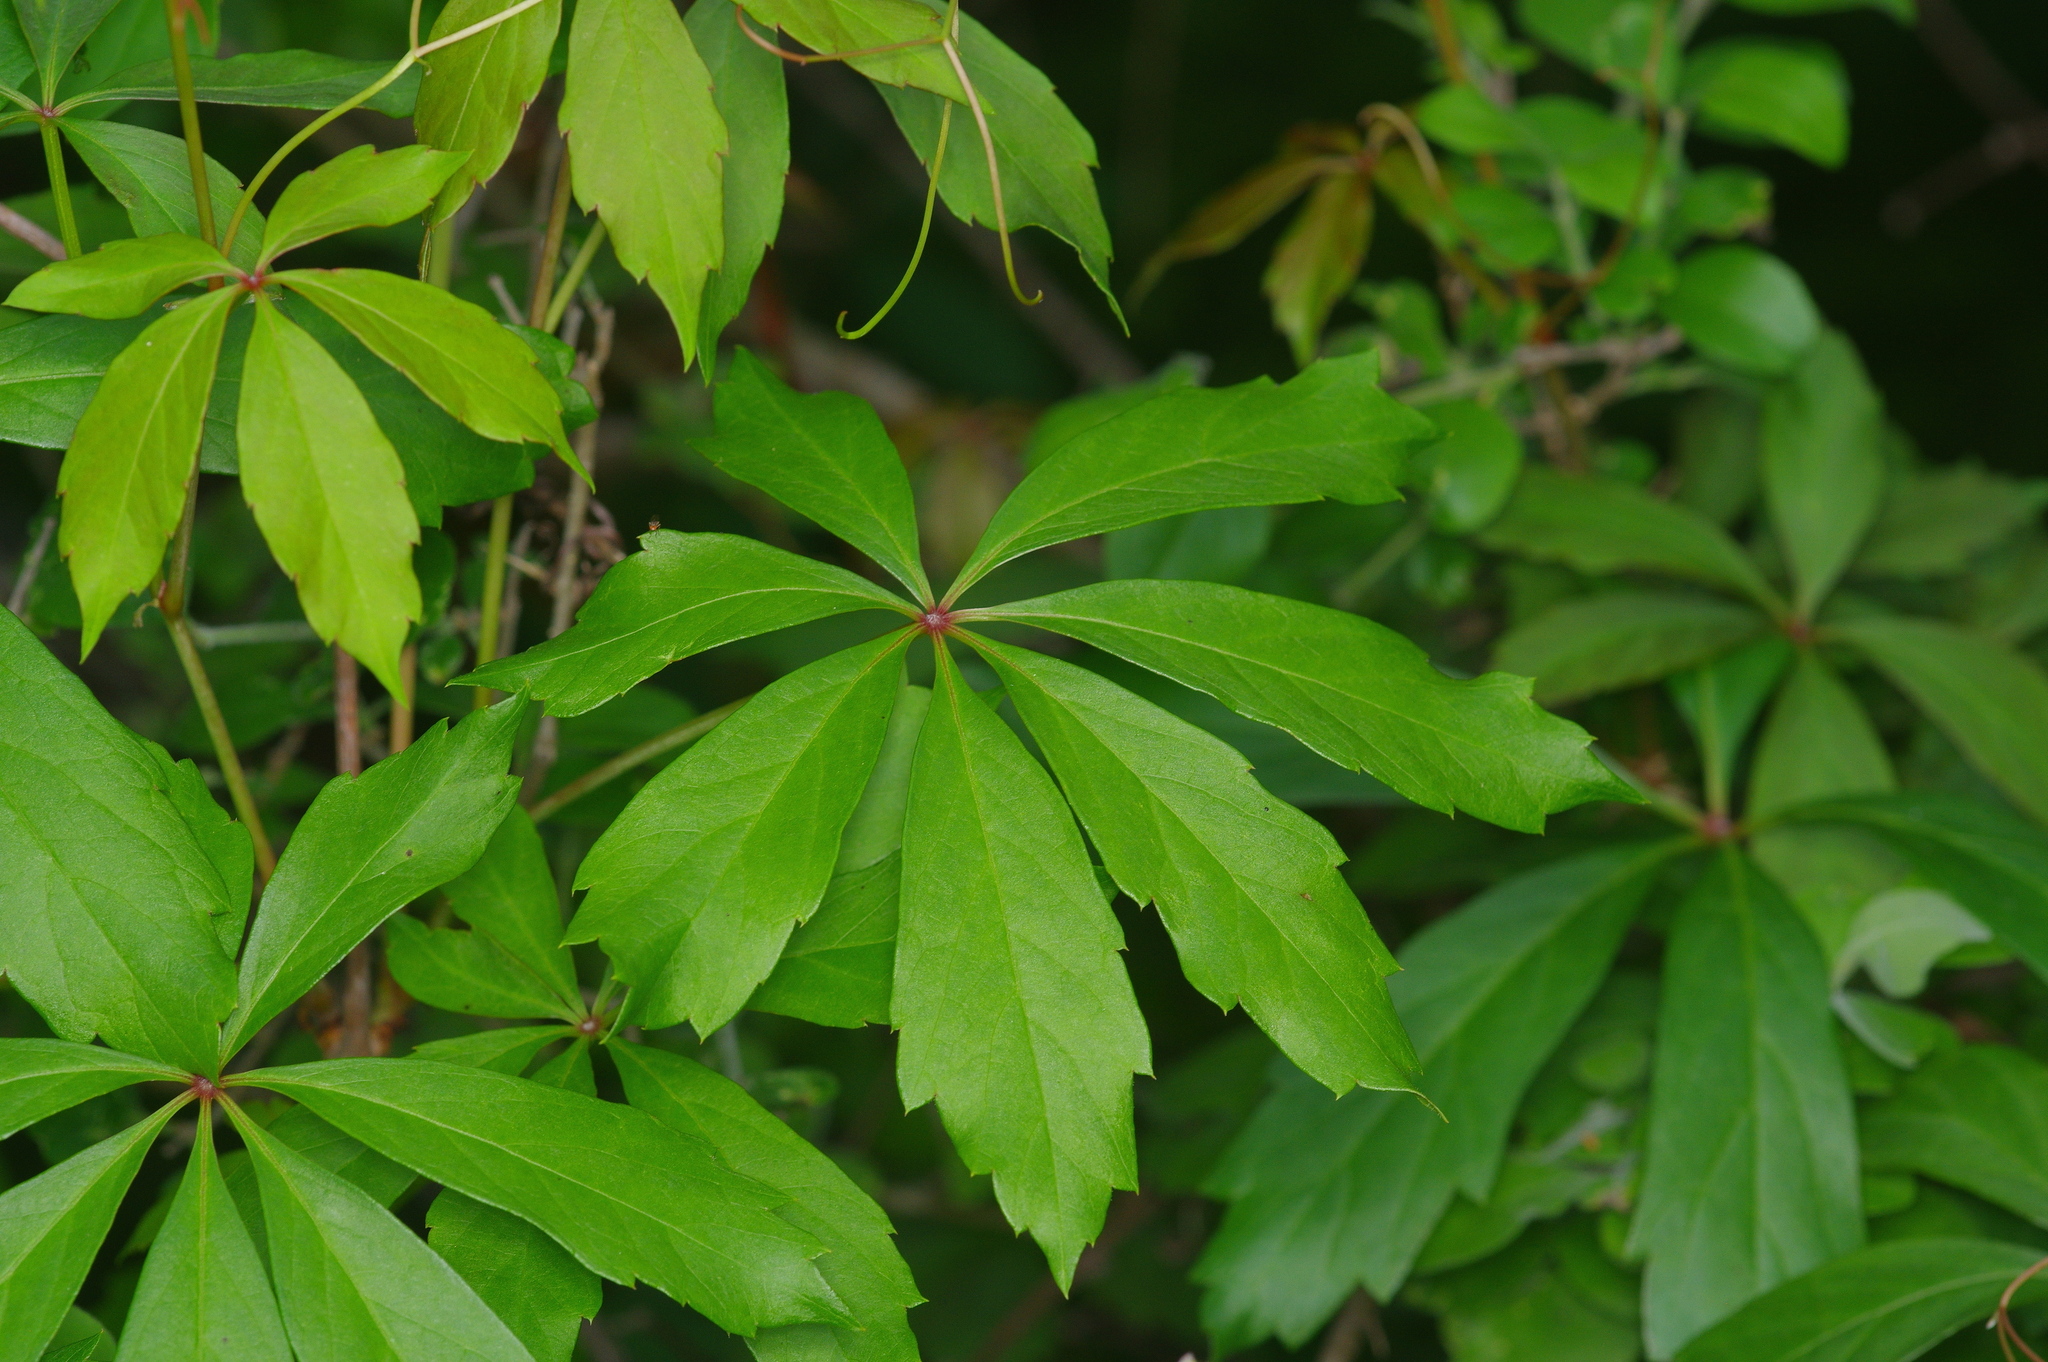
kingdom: Plantae
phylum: Tracheophyta
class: Magnoliopsida
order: Vitales
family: Vitaceae
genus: Parthenocissus
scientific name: Parthenocissus heptaphylla
